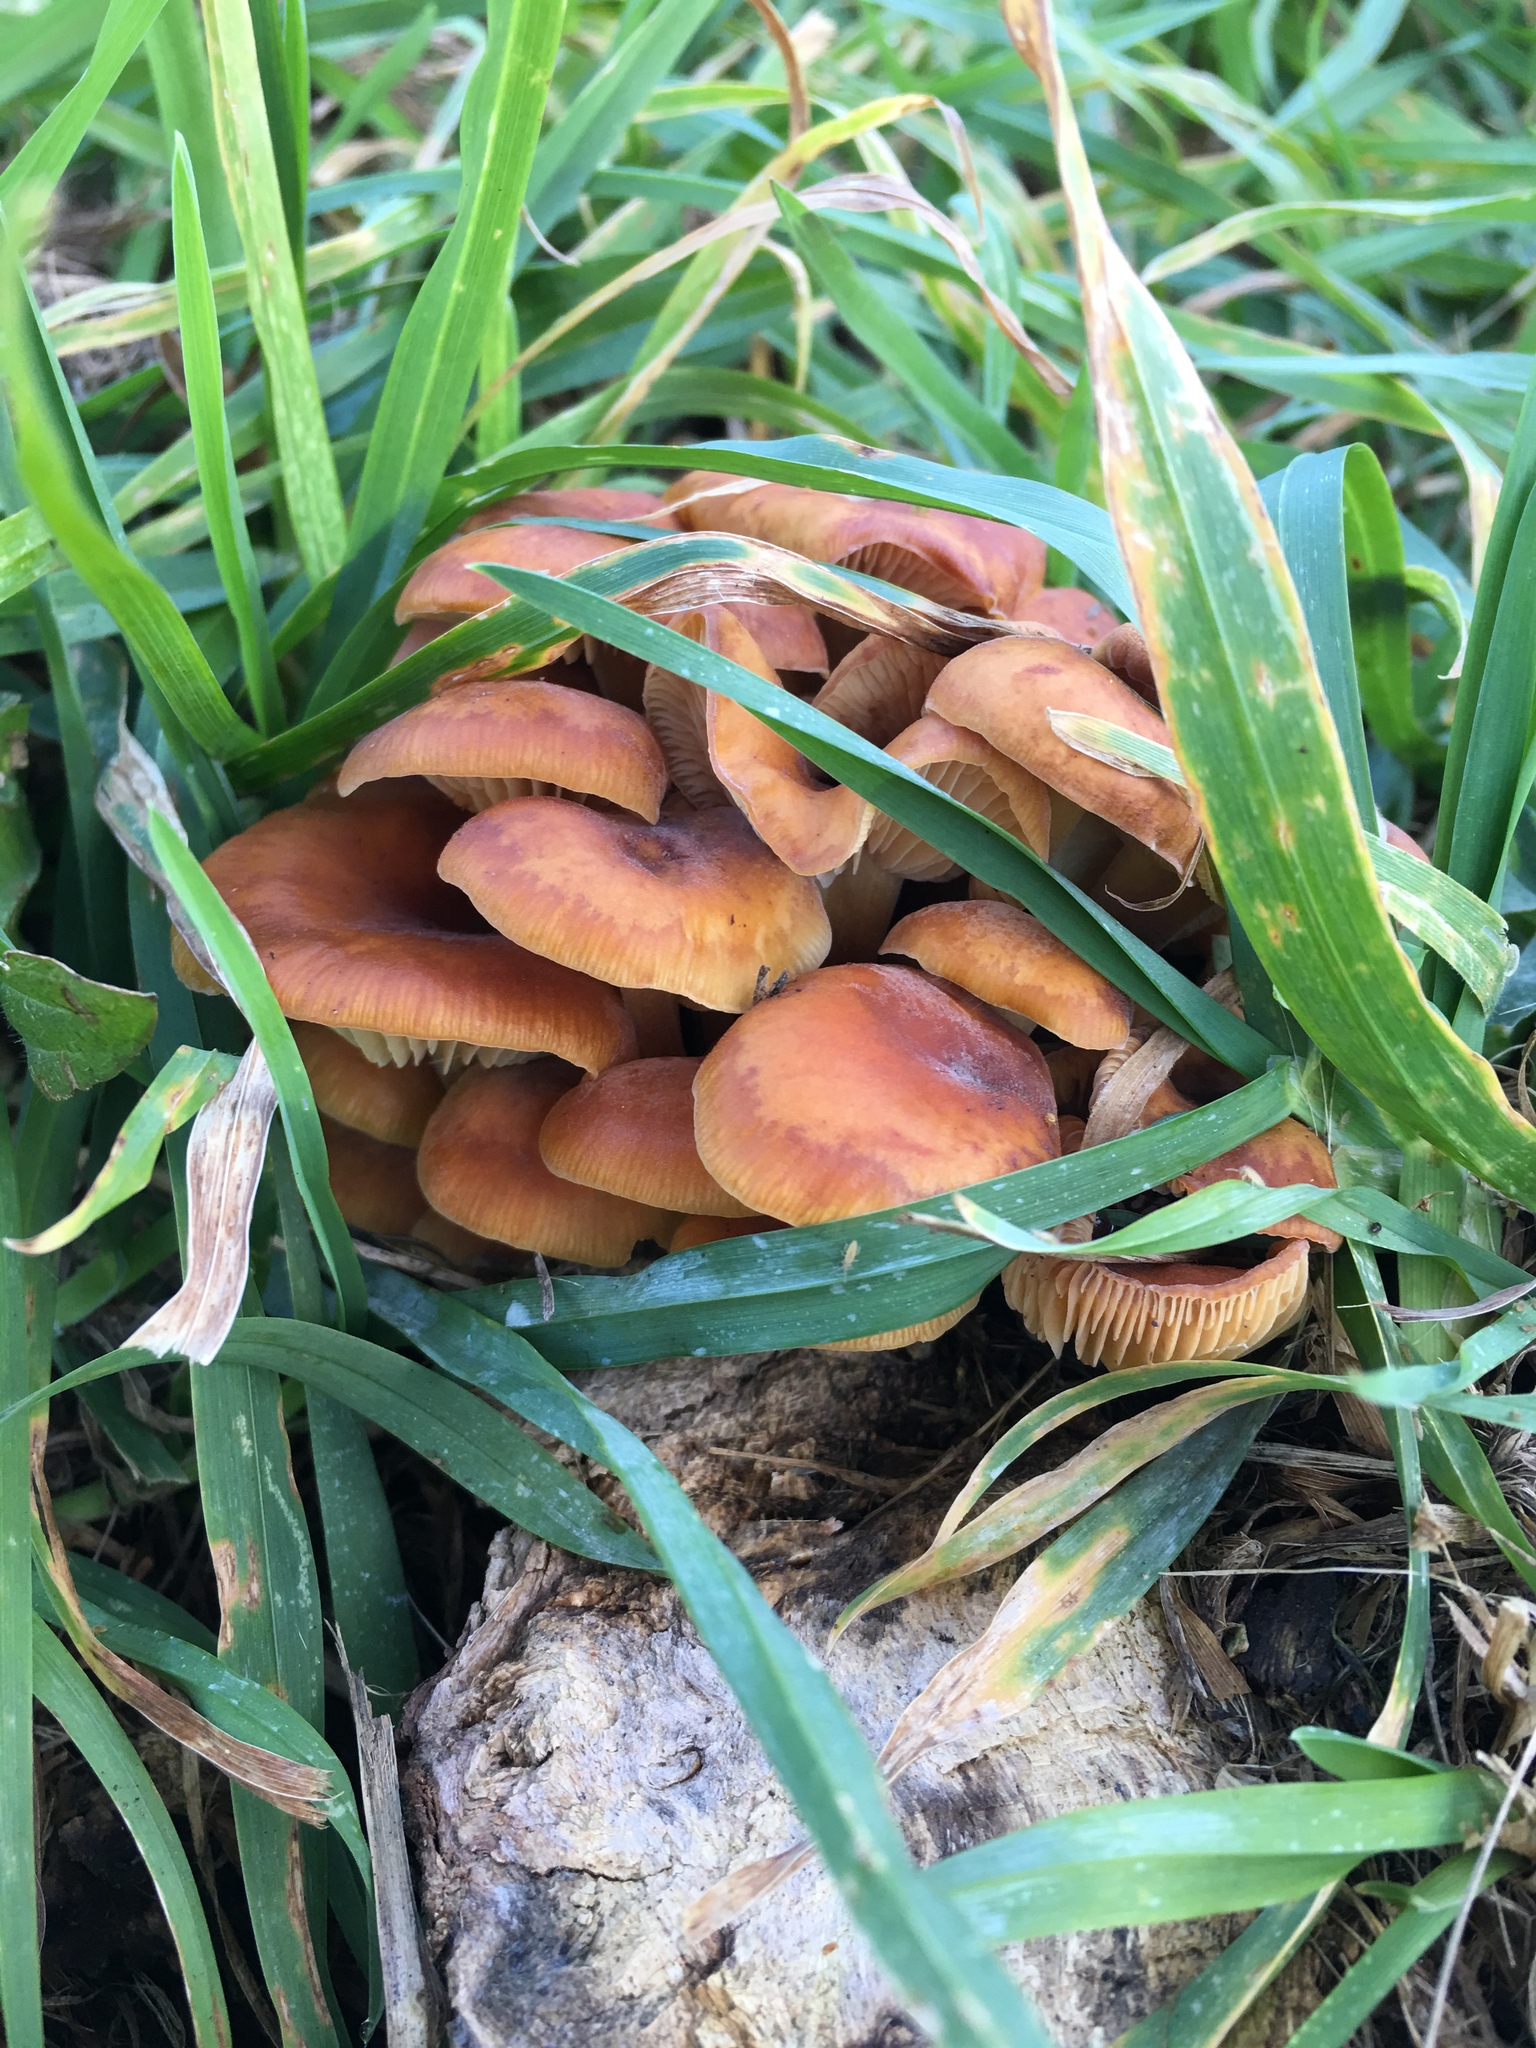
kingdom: Fungi
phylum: Basidiomycota
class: Agaricomycetes
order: Agaricales
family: Physalacriaceae
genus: Flammulina
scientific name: Flammulina velutipes
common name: Velvet shank
